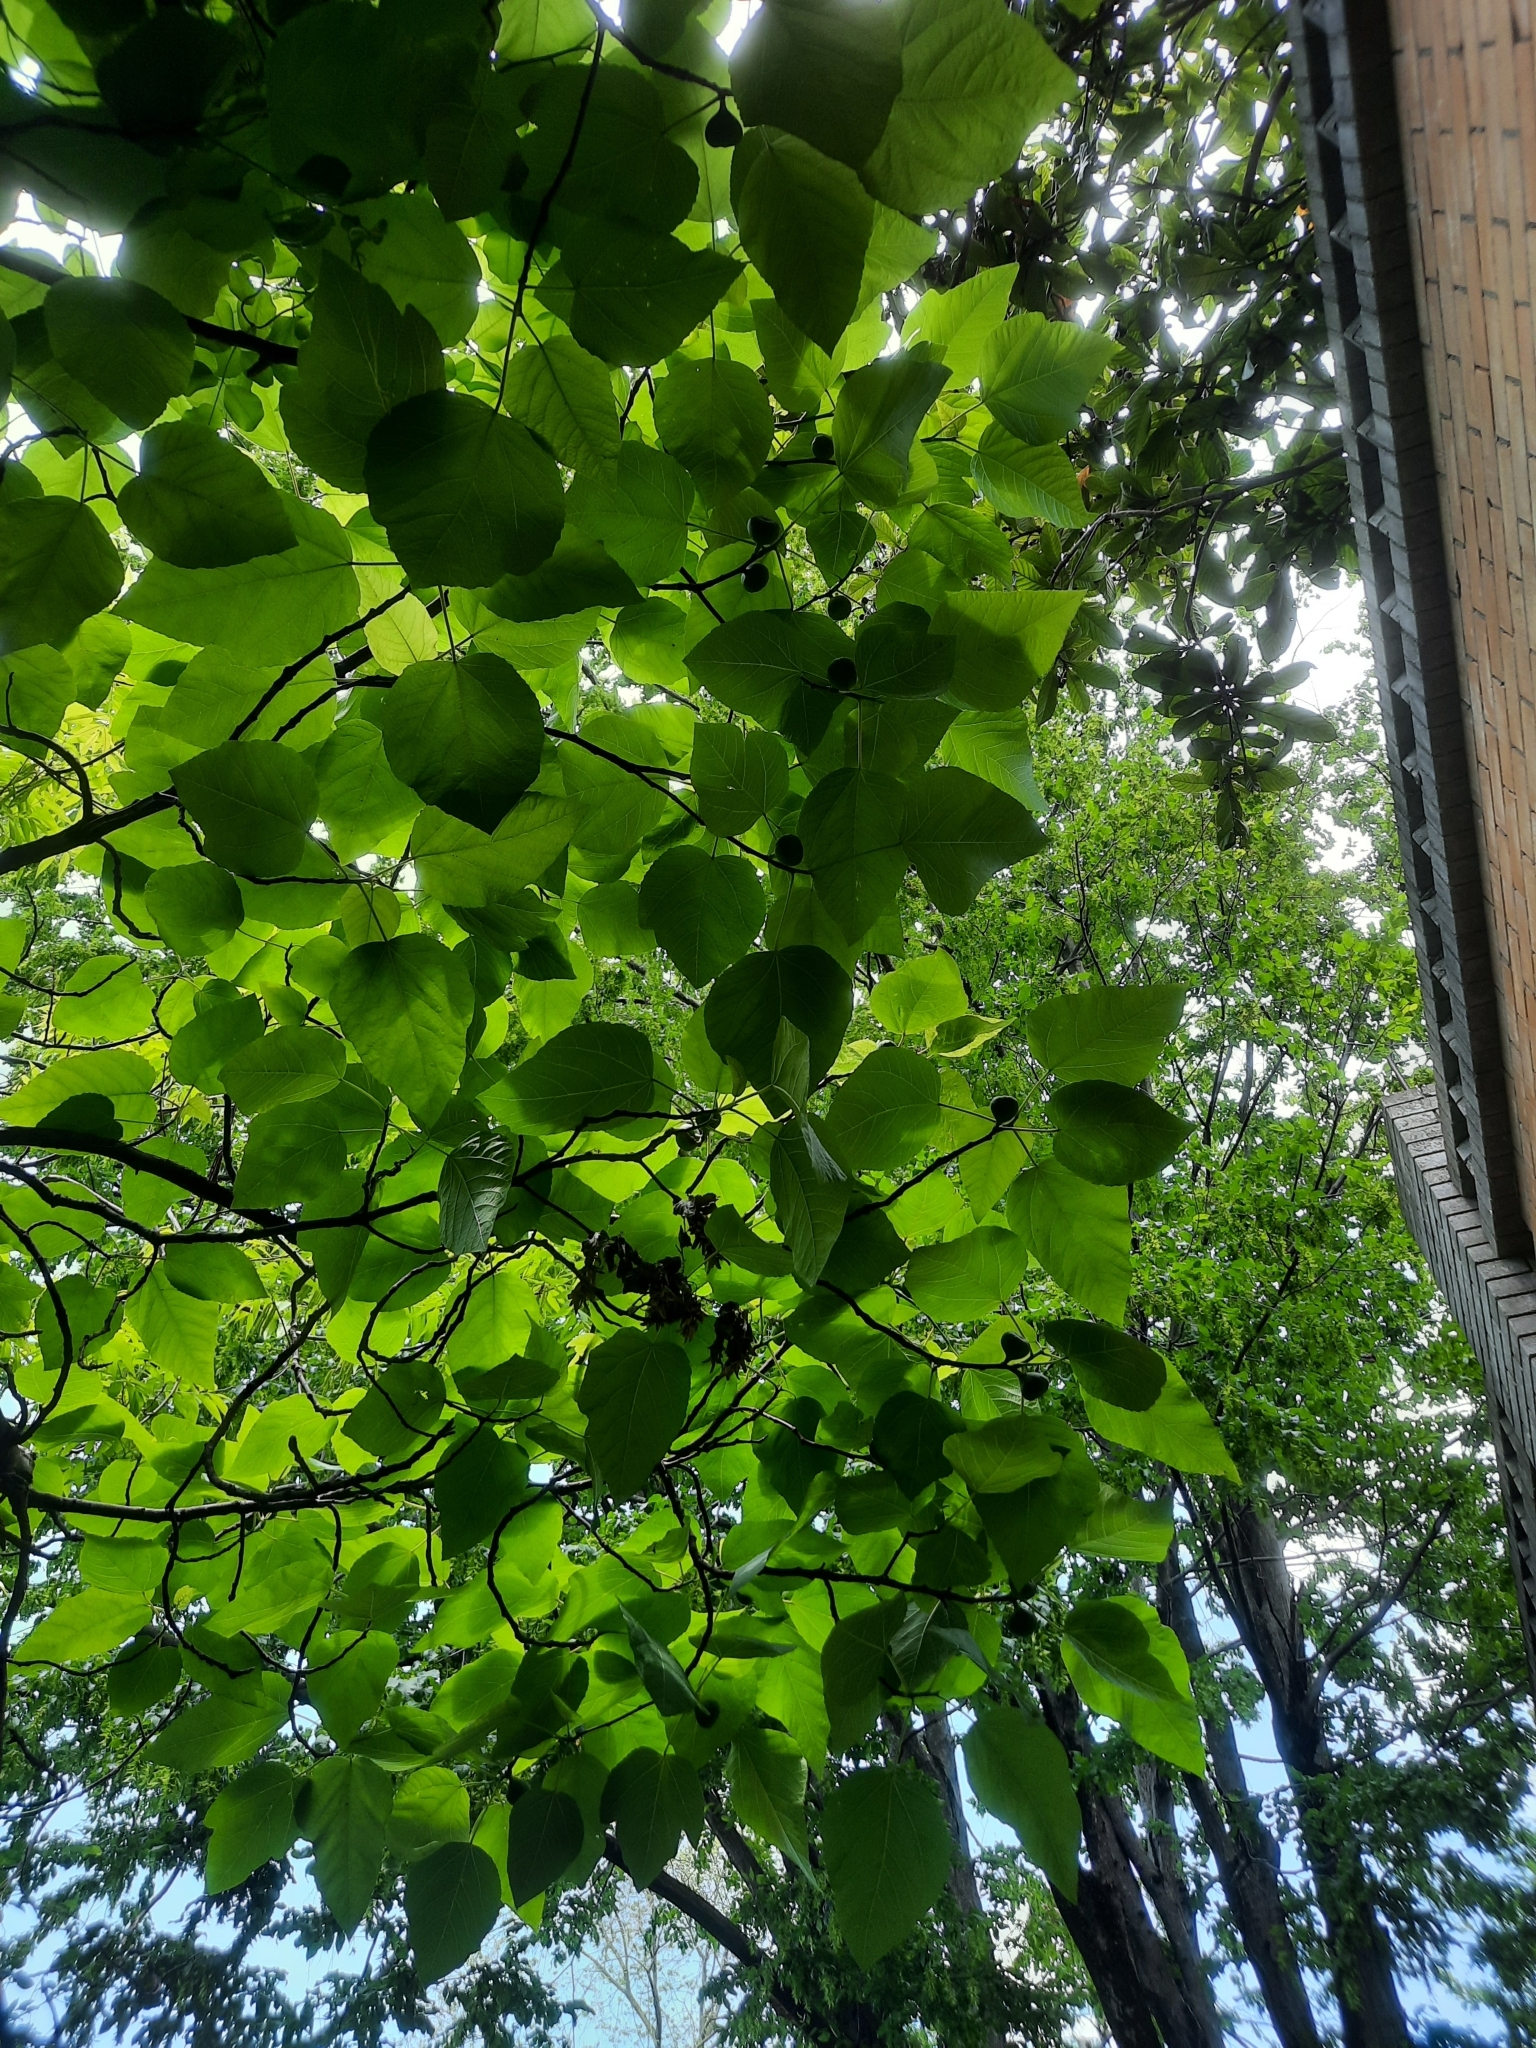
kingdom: Plantae
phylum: Tracheophyta
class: Magnoliopsida
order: Rosales
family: Moraceae
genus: Ficus
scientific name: Ficus carica
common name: Fig
